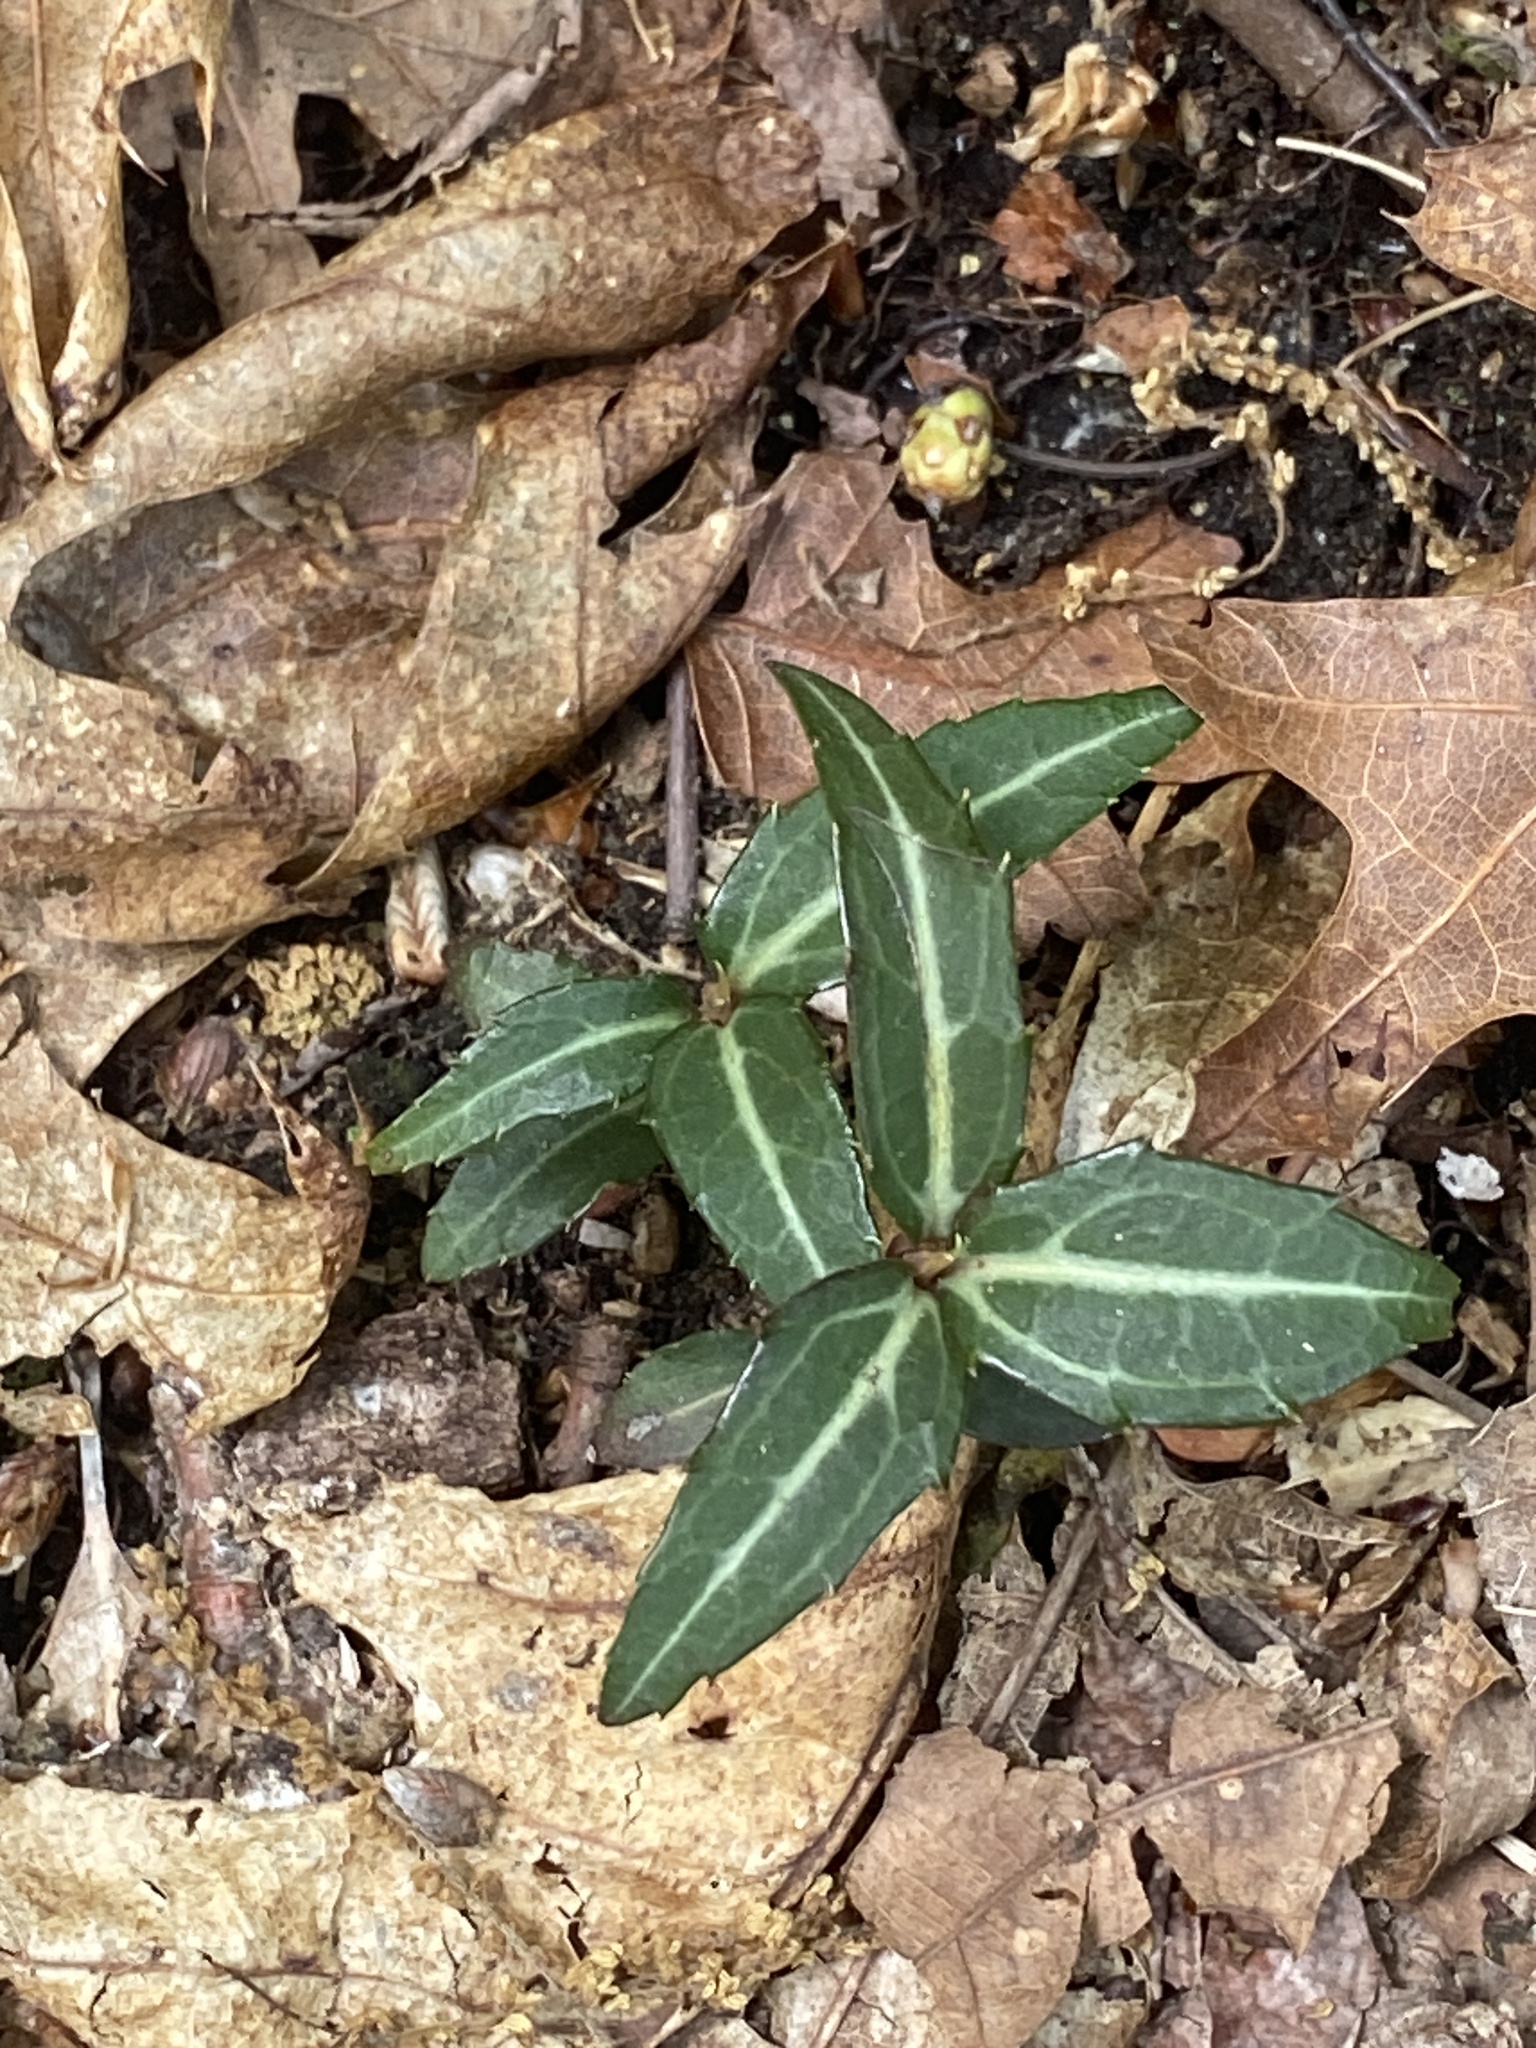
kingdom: Plantae
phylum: Tracheophyta
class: Magnoliopsida
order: Ericales
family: Ericaceae
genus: Chimaphila
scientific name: Chimaphila maculata
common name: Spotted pipsissewa
